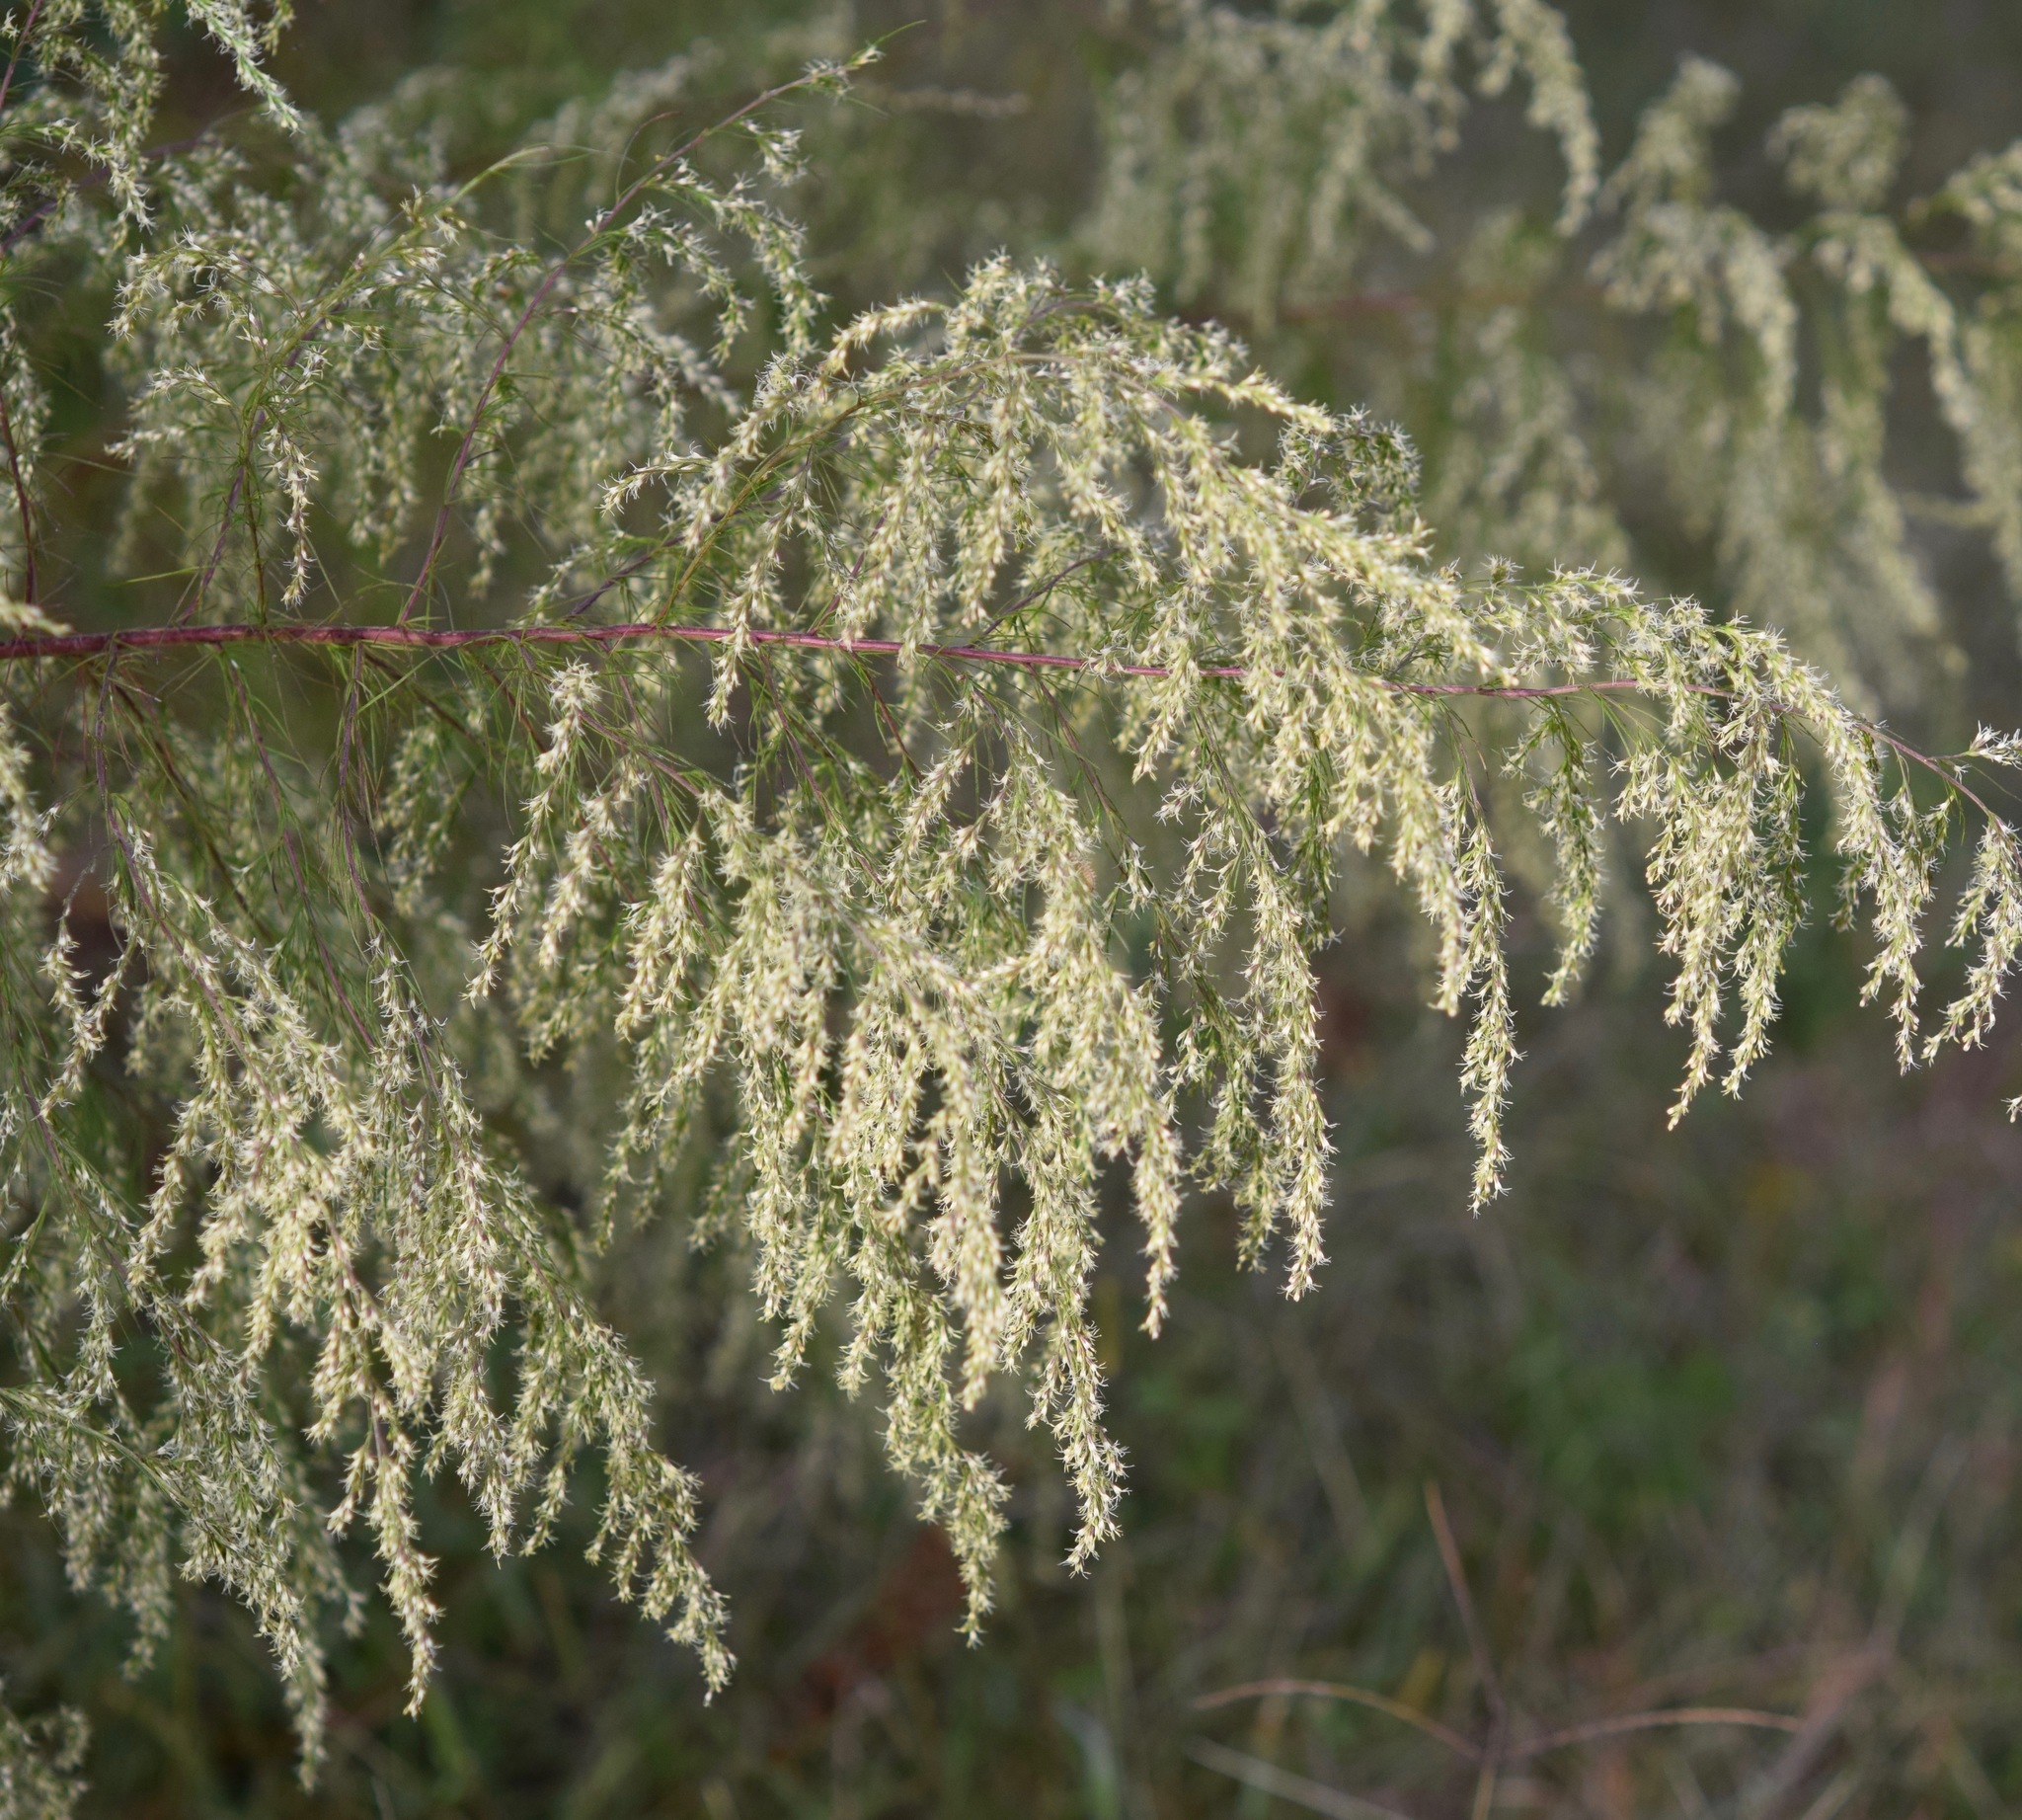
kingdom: Plantae
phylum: Tracheophyta
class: Magnoliopsida
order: Asterales
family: Asteraceae
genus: Eupatorium
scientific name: Eupatorium capillifolium
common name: Dog-fennel
